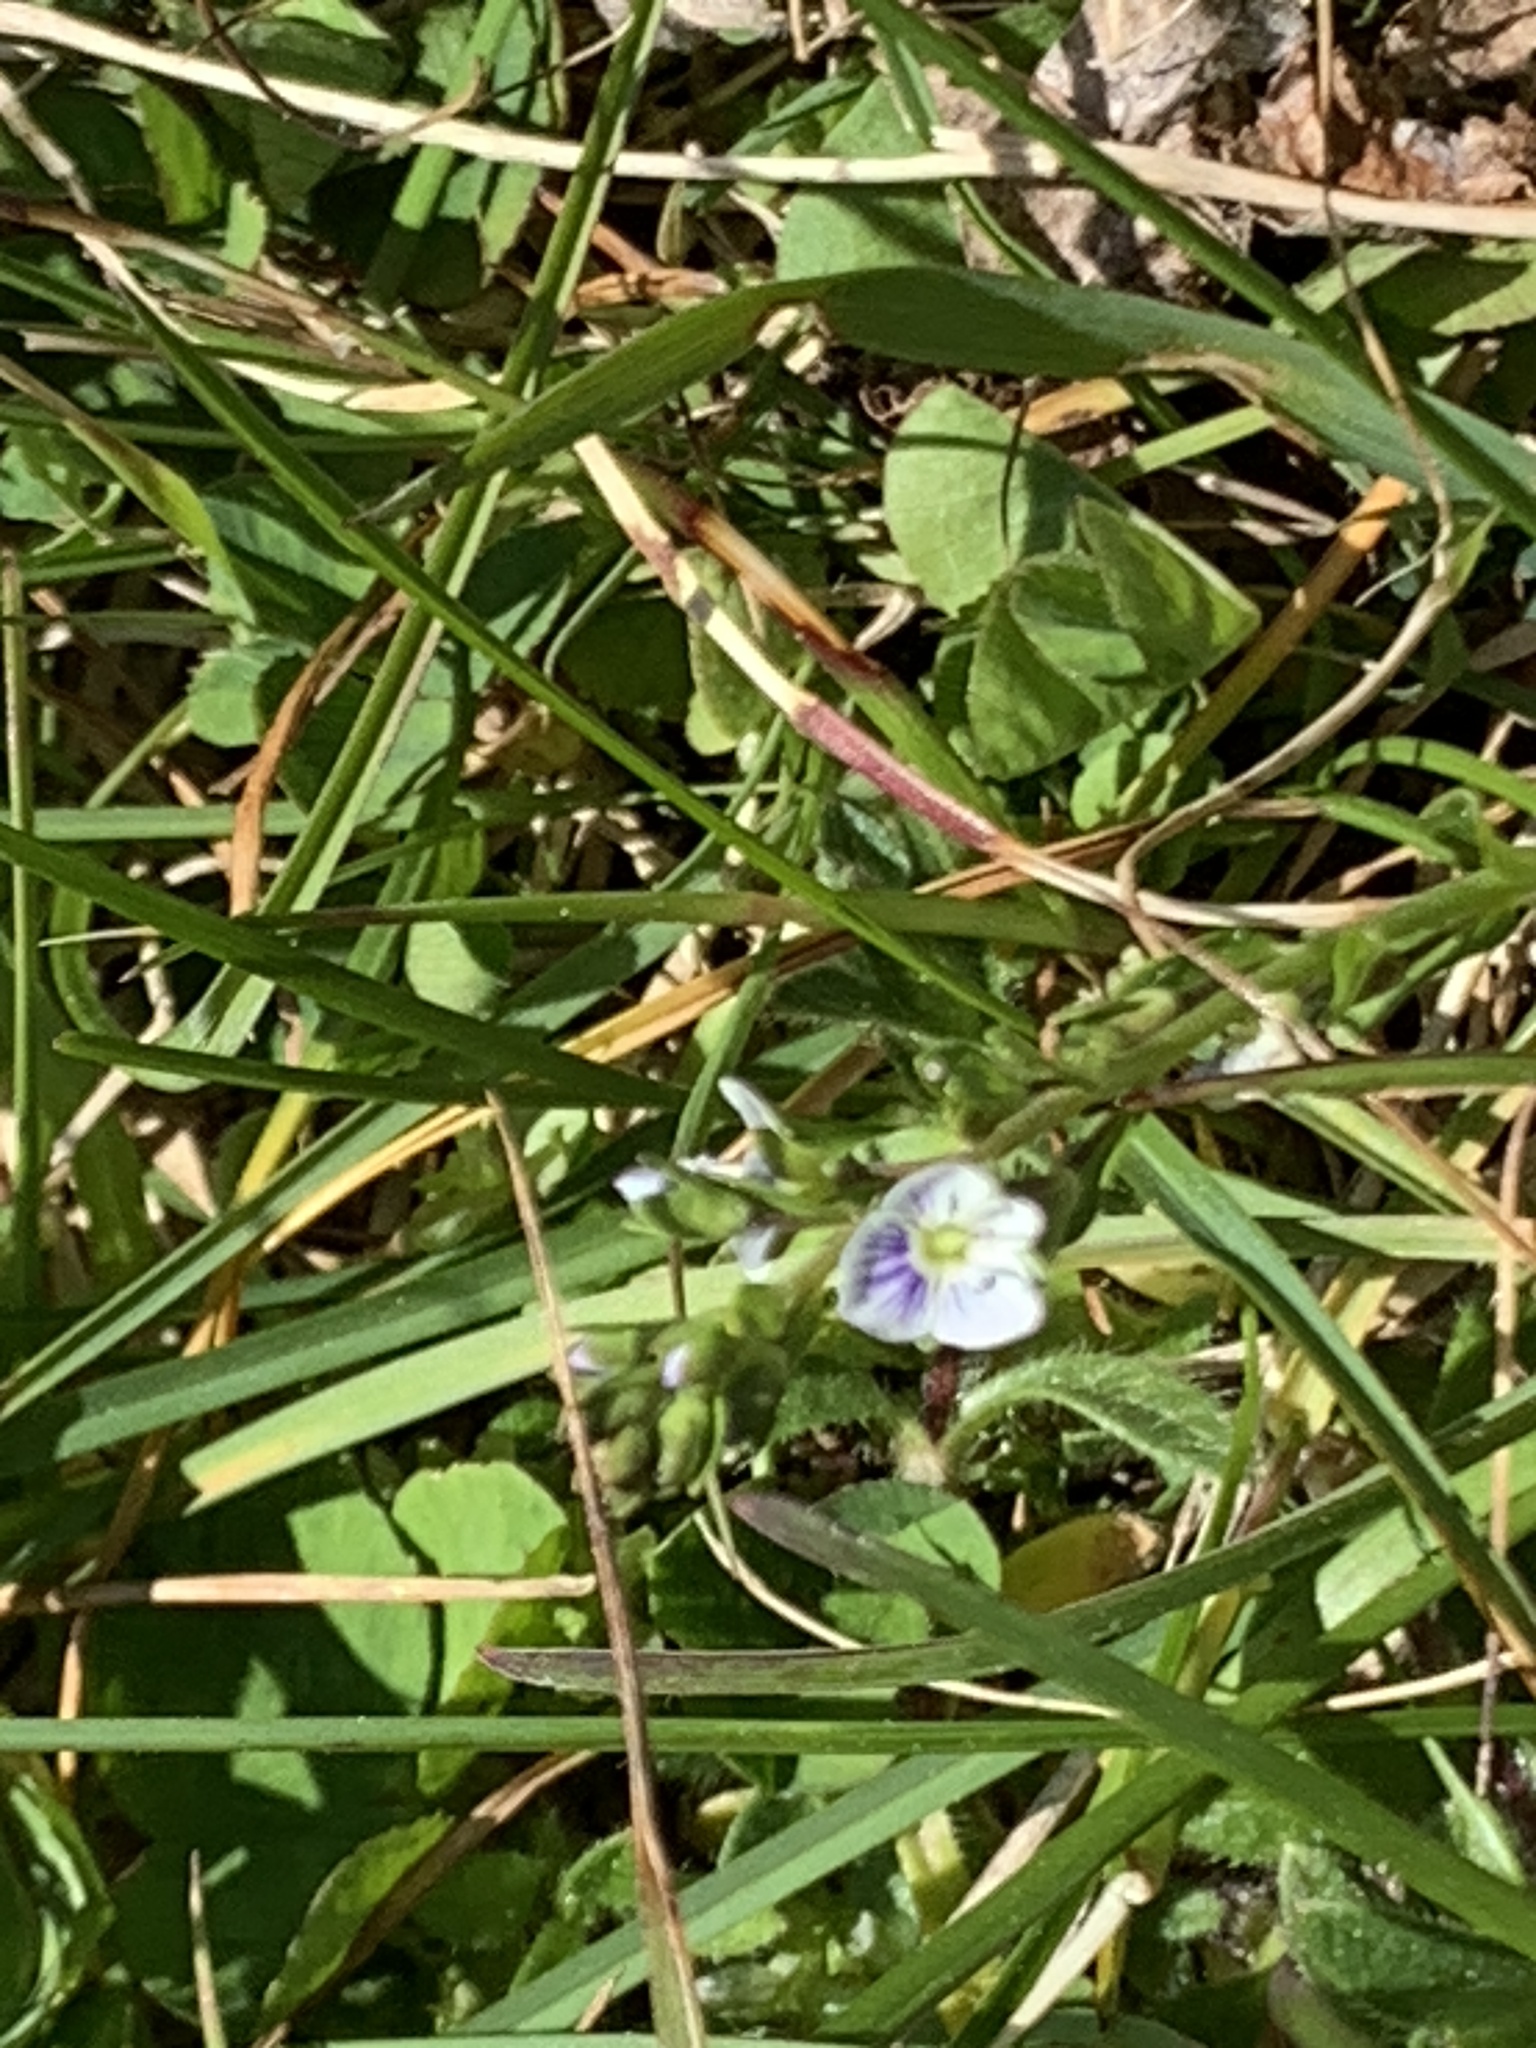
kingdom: Plantae
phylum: Tracheophyta
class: Magnoliopsida
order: Lamiales
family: Plantaginaceae
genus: Veronica
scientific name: Veronica serpyllifolia
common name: Thyme-leaved speedwell
